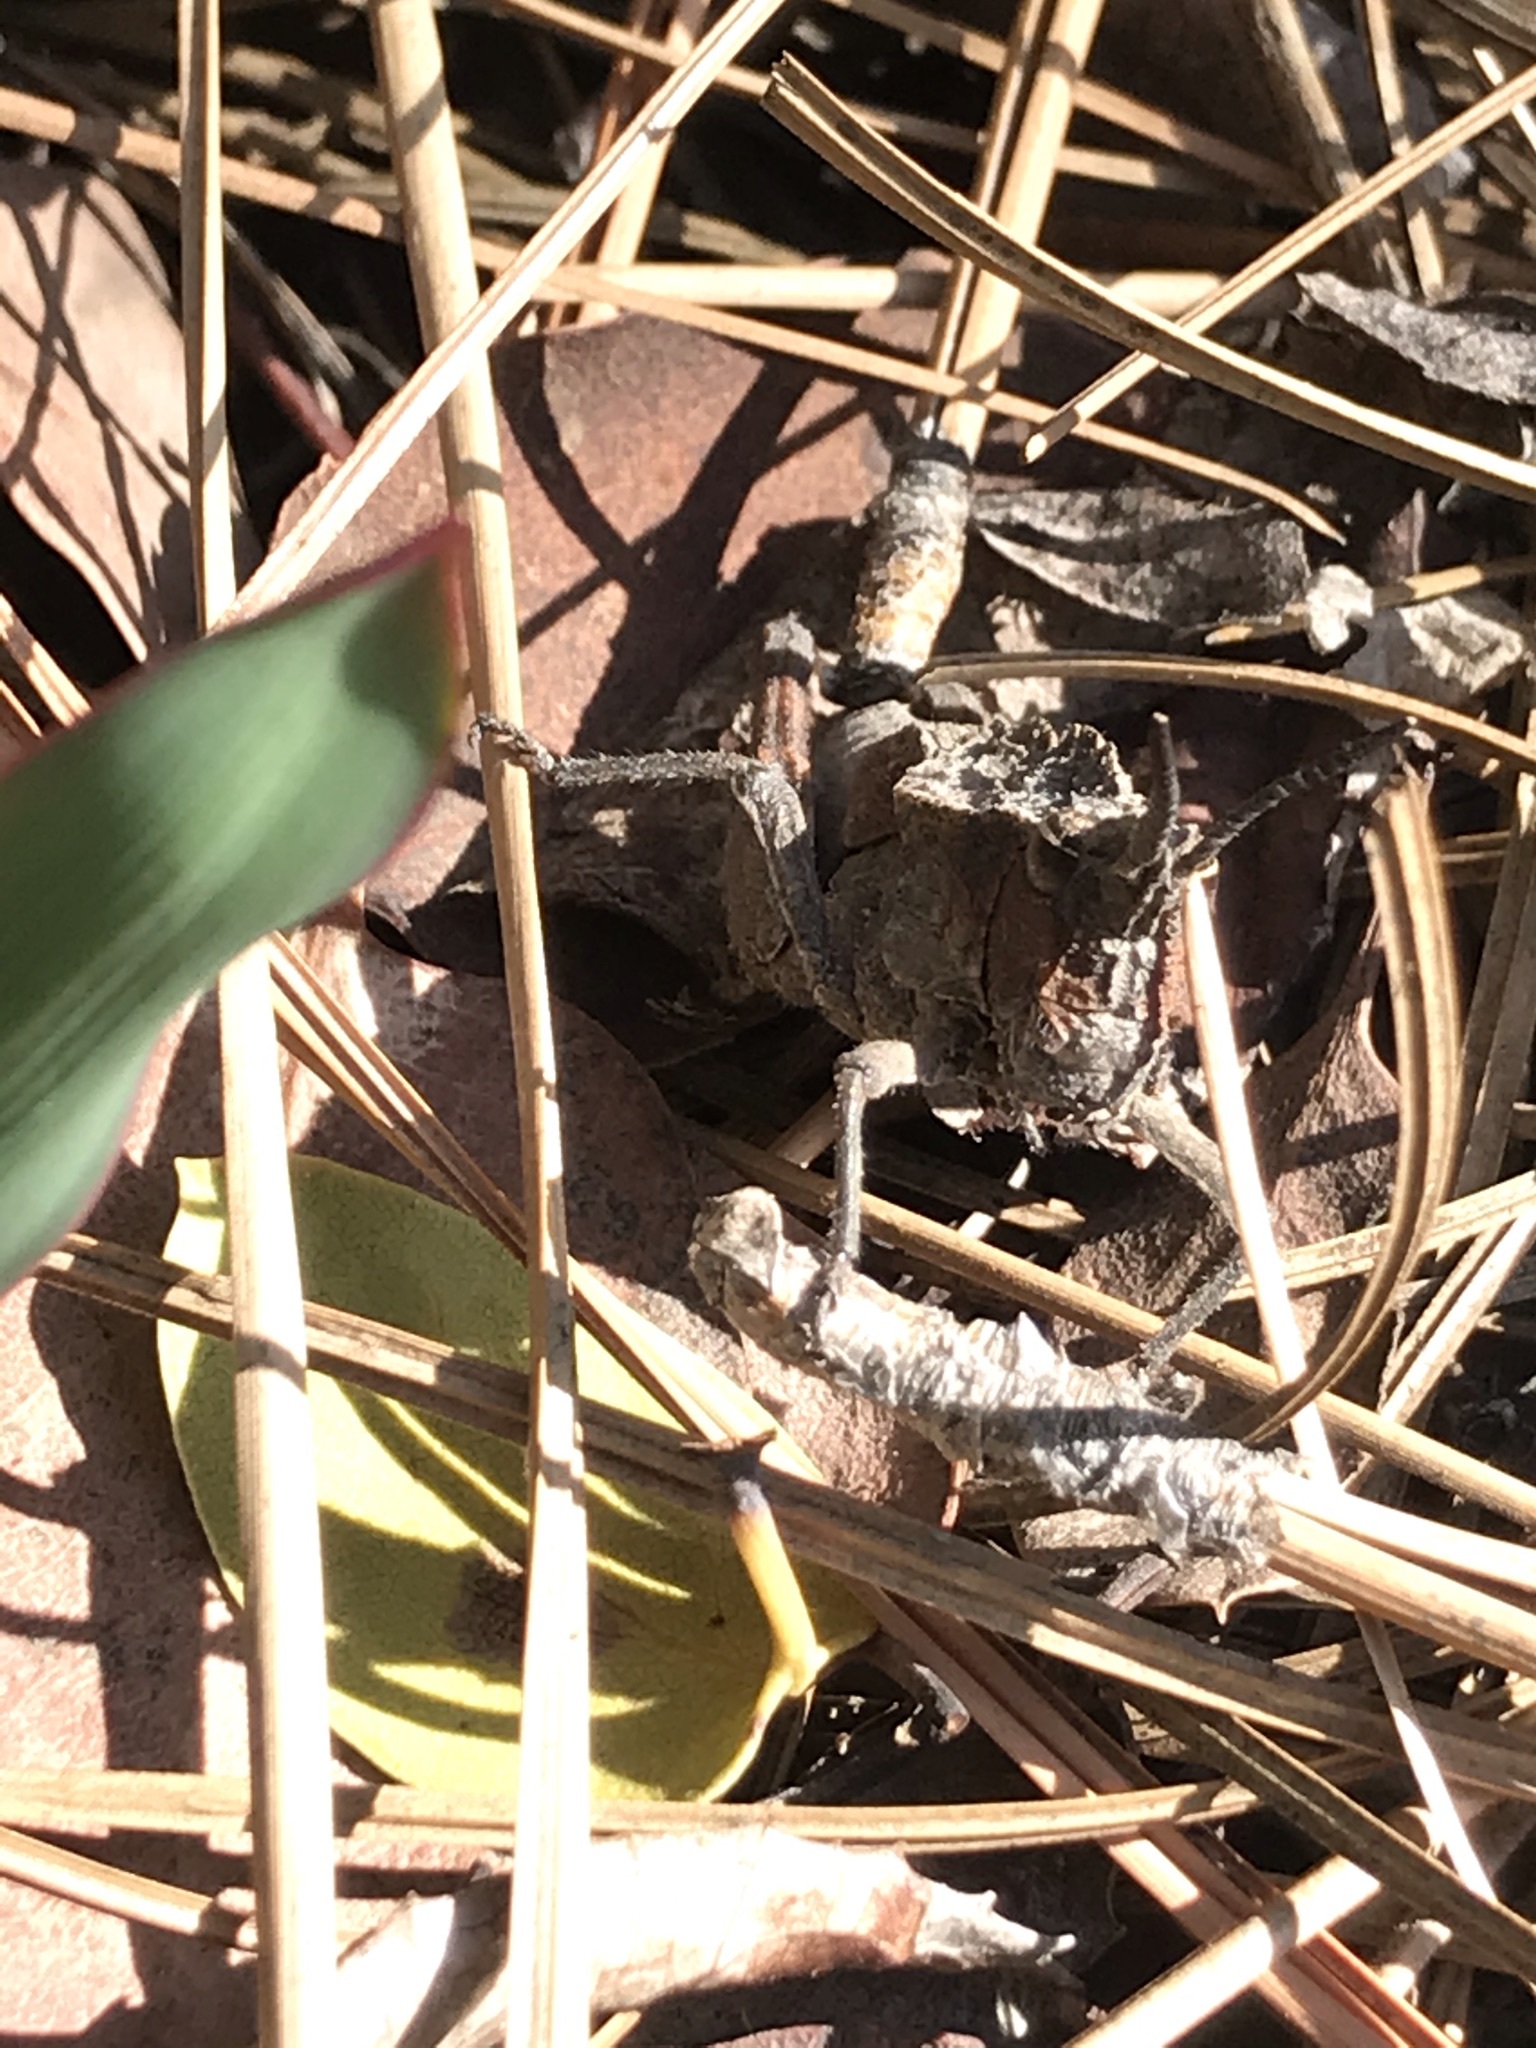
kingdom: Animalia
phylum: Arthropoda
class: Insecta
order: Orthoptera
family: Romaleidae
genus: Dracotettix
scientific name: Dracotettix monstrosus
